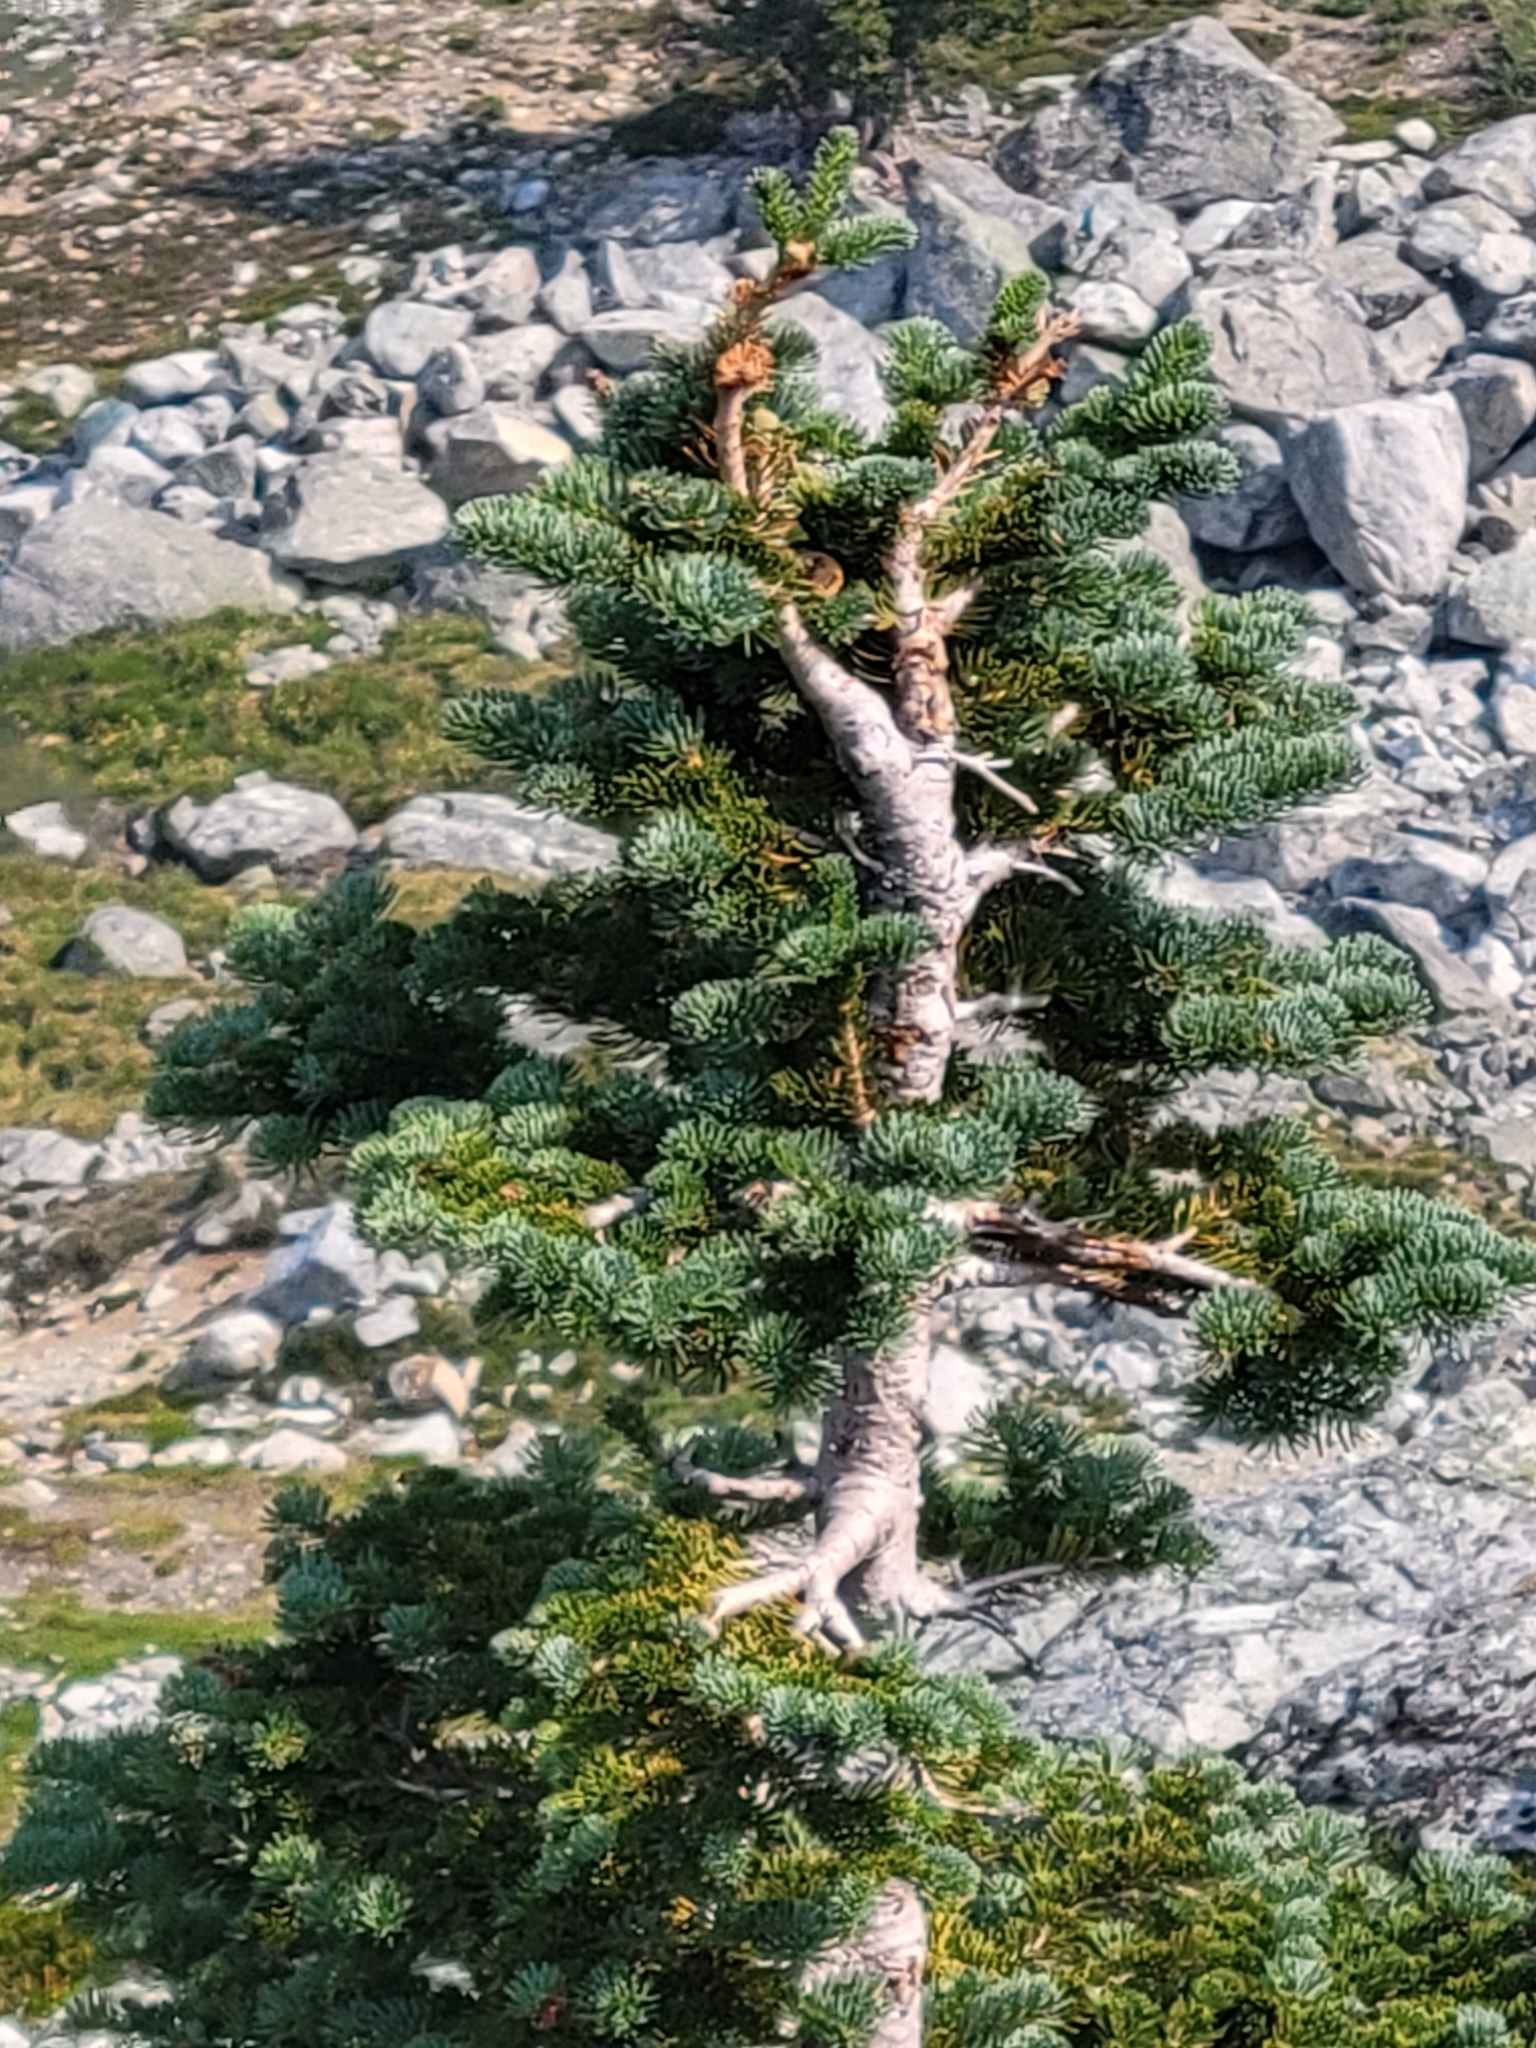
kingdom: Plantae
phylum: Tracheophyta
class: Pinopsida
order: Pinales
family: Pinaceae
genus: Abies
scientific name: Abies lasiocarpa
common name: Subalpine fir
